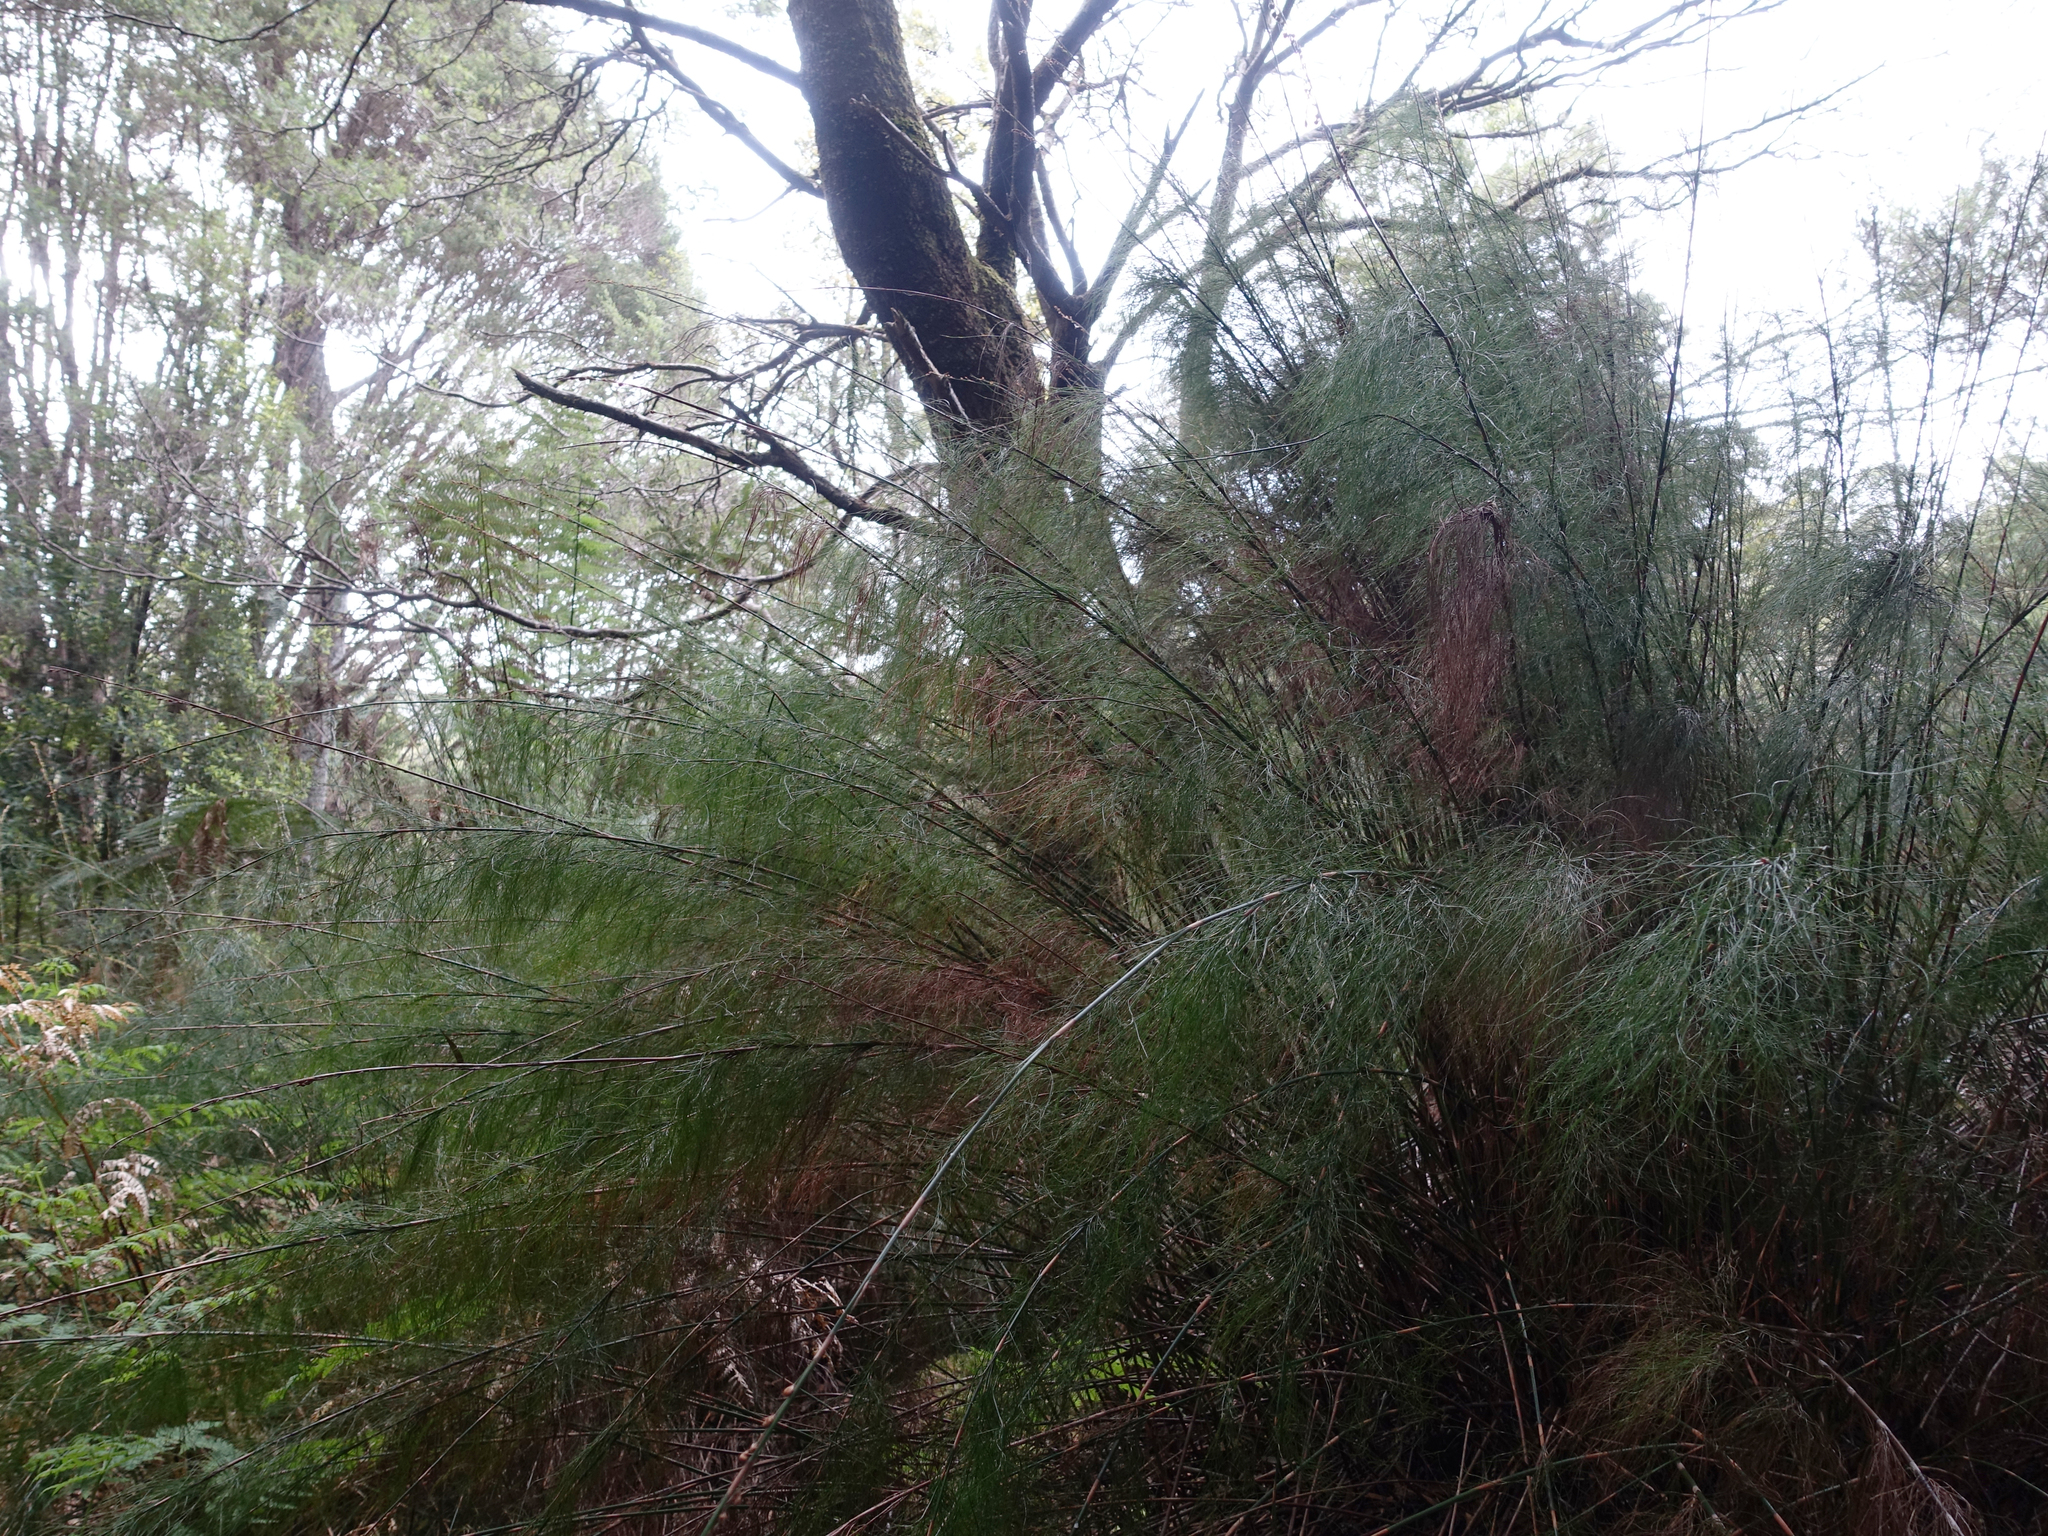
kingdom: Plantae
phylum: Tracheophyta
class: Liliopsida
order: Poales
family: Restionaceae
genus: Baloskion
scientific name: Baloskion tetraphyllum
